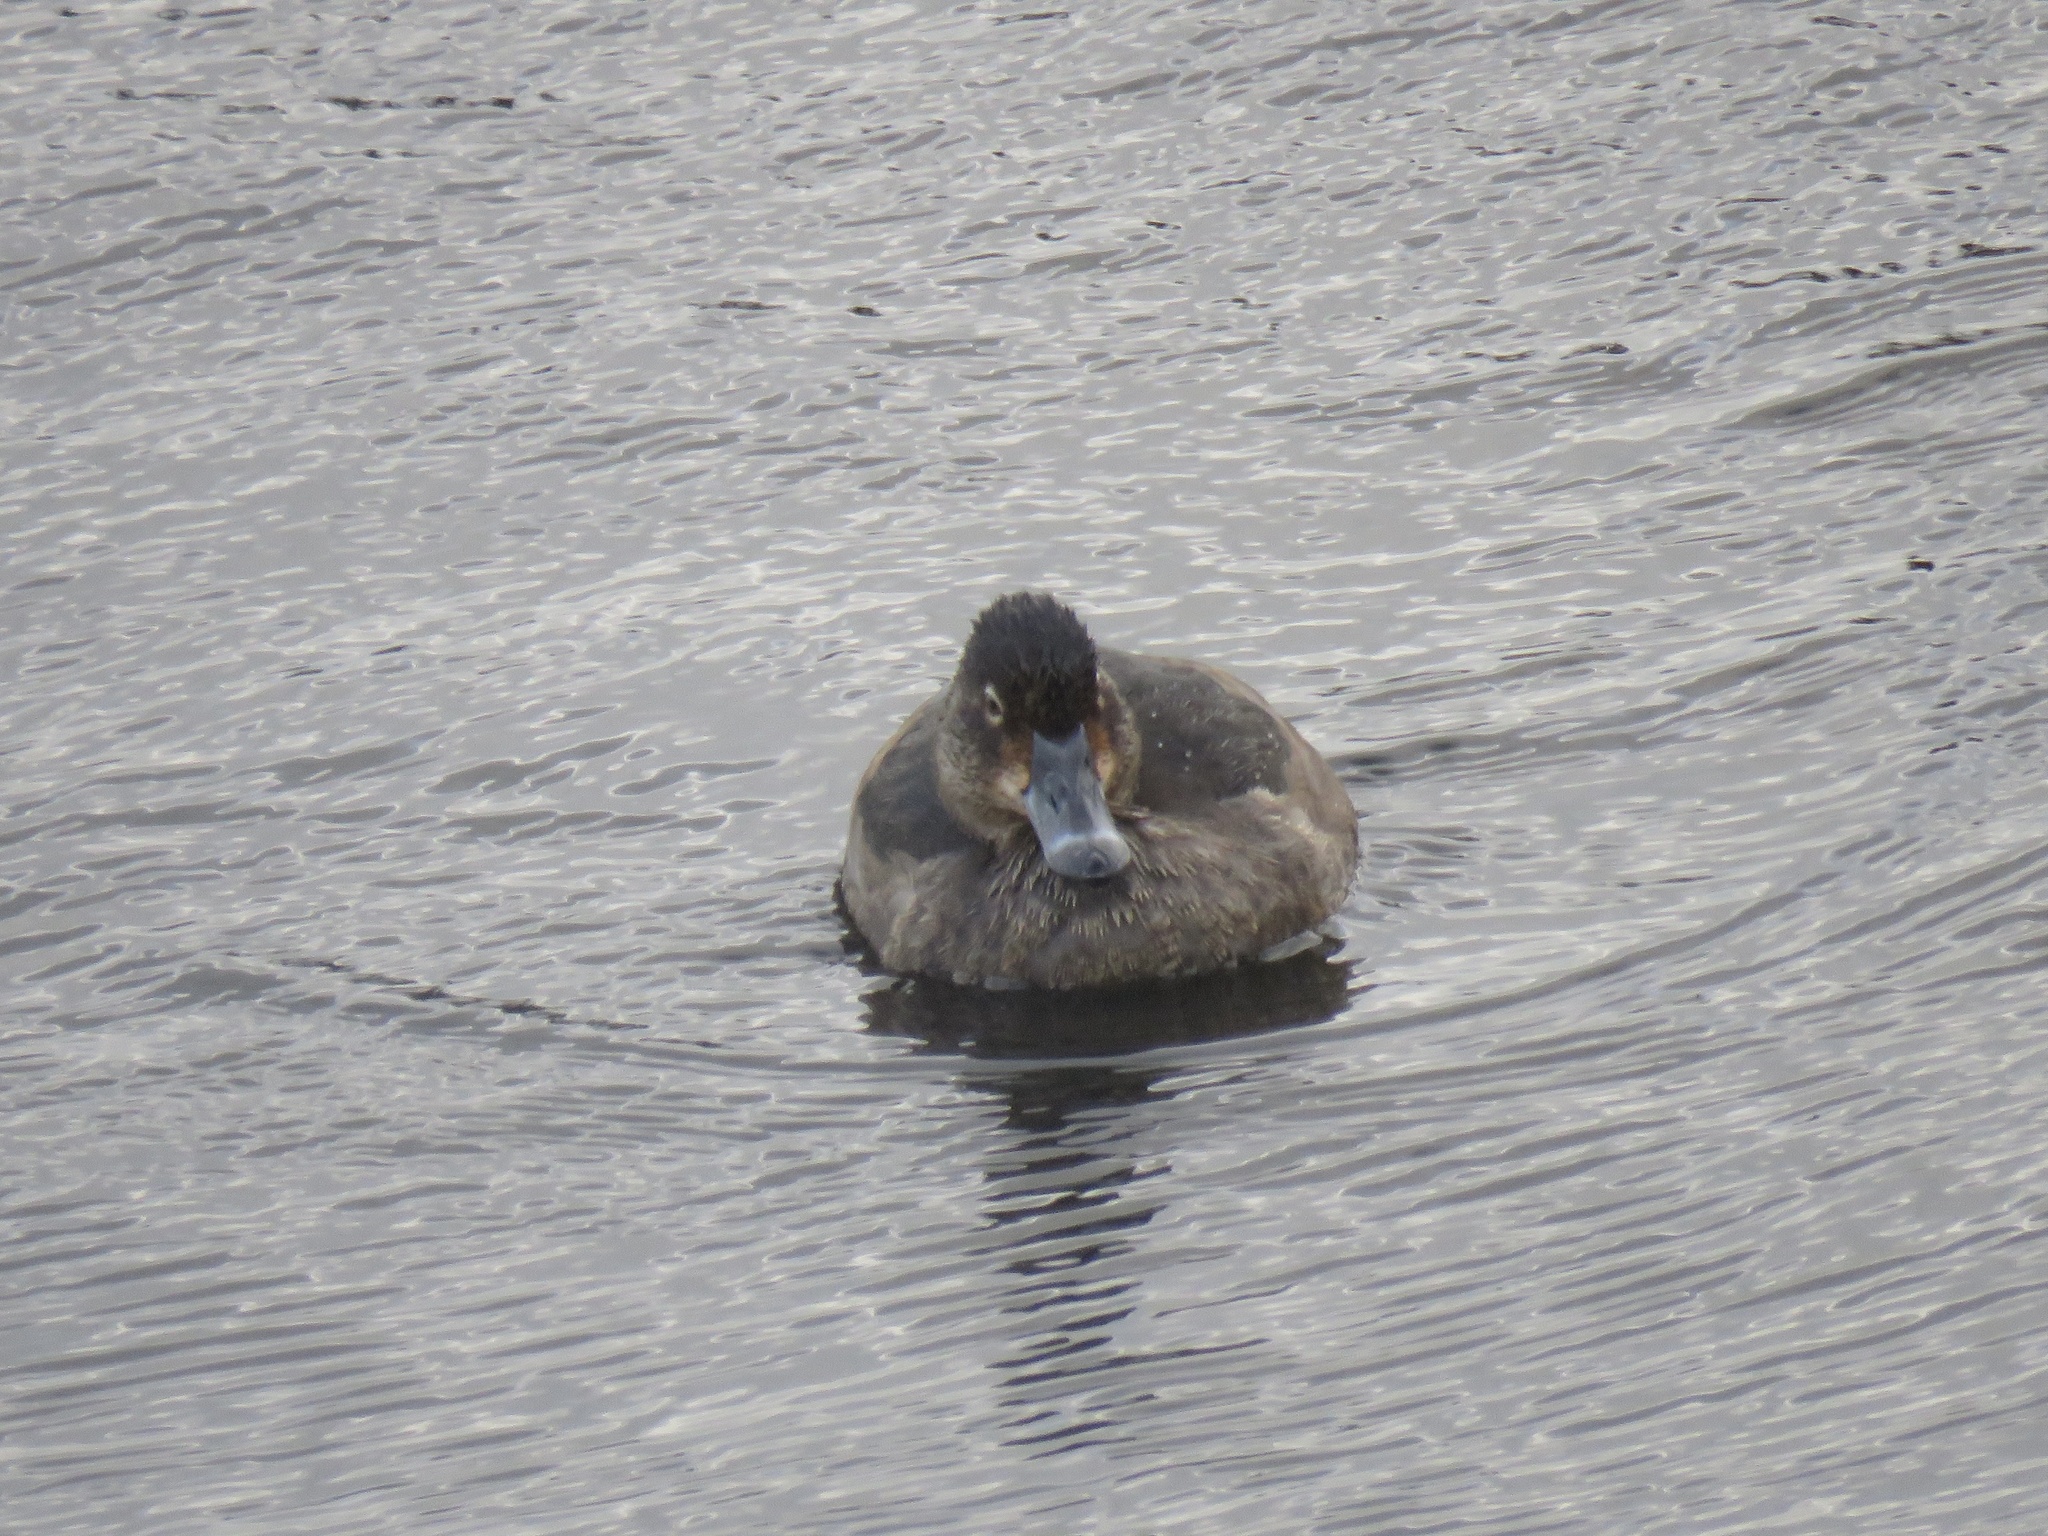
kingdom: Animalia
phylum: Chordata
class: Aves
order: Anseriformes
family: Anatidae
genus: Aythya
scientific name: Aythya collaris
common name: Ring-necked duck
